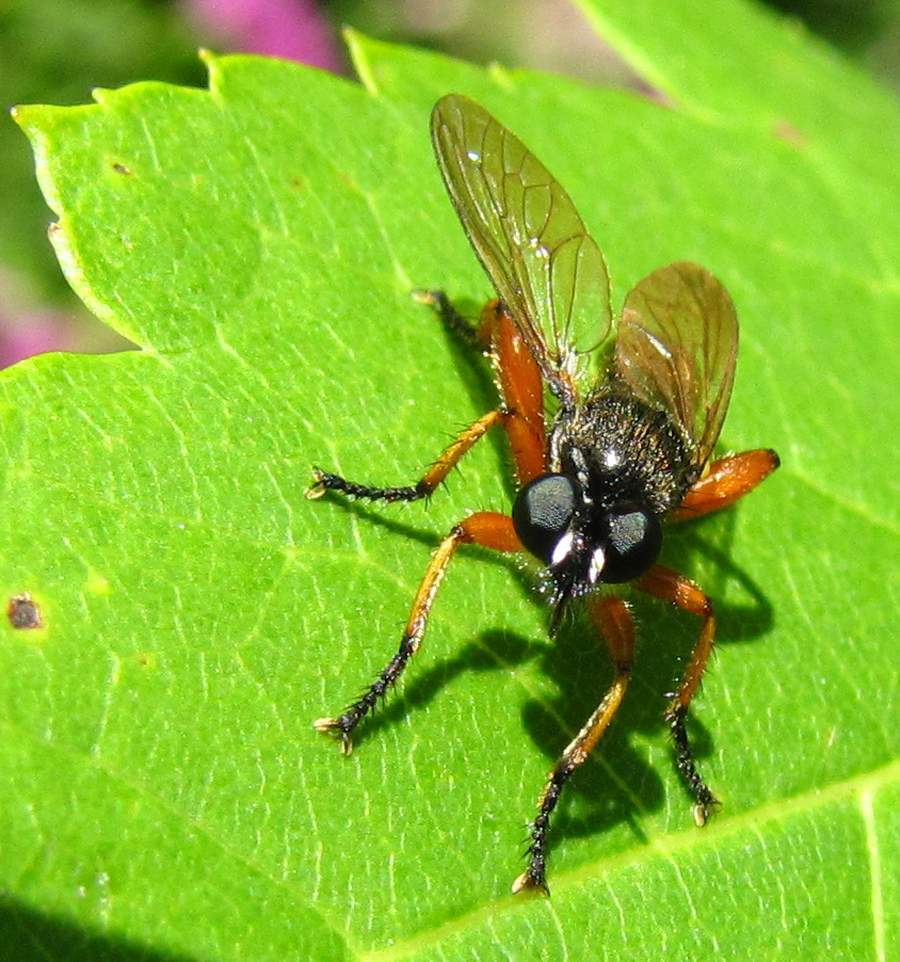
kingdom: Animalia
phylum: Arthropoda
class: Insecta
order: Diptera
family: Asilidae
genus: Laphria
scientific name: Laphria sadales
